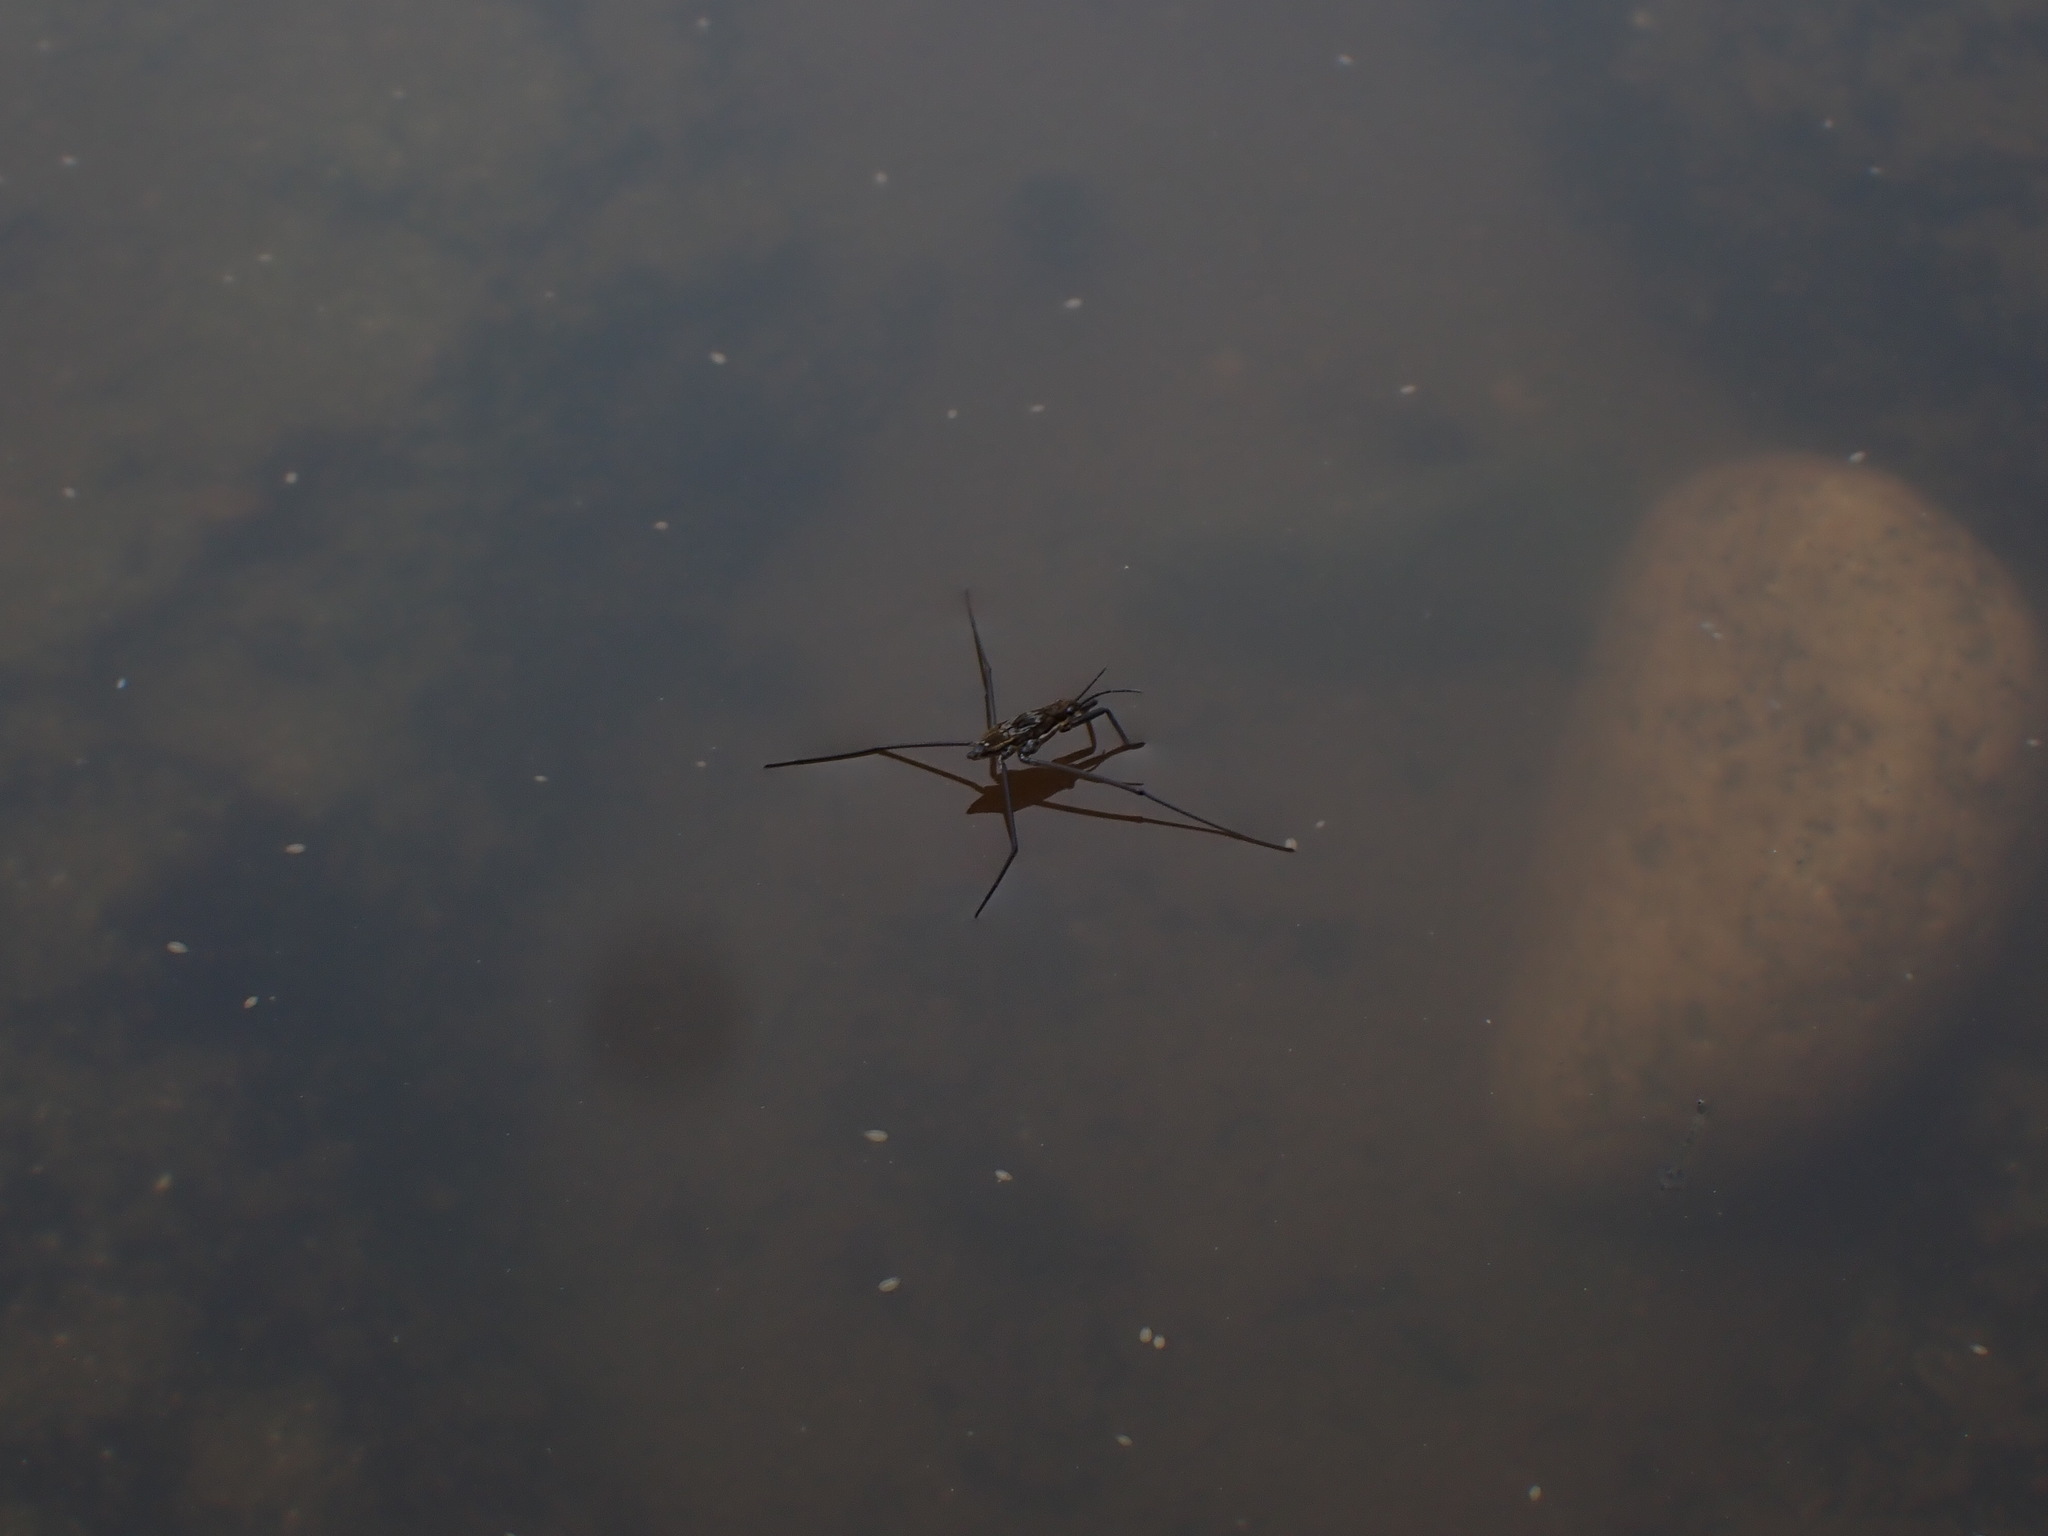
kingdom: Animalia
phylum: Arthropoda
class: Insecta
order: Hemiptera
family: Gerridae
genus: Aquarius
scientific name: Aquarius remigis
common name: Common water strider
